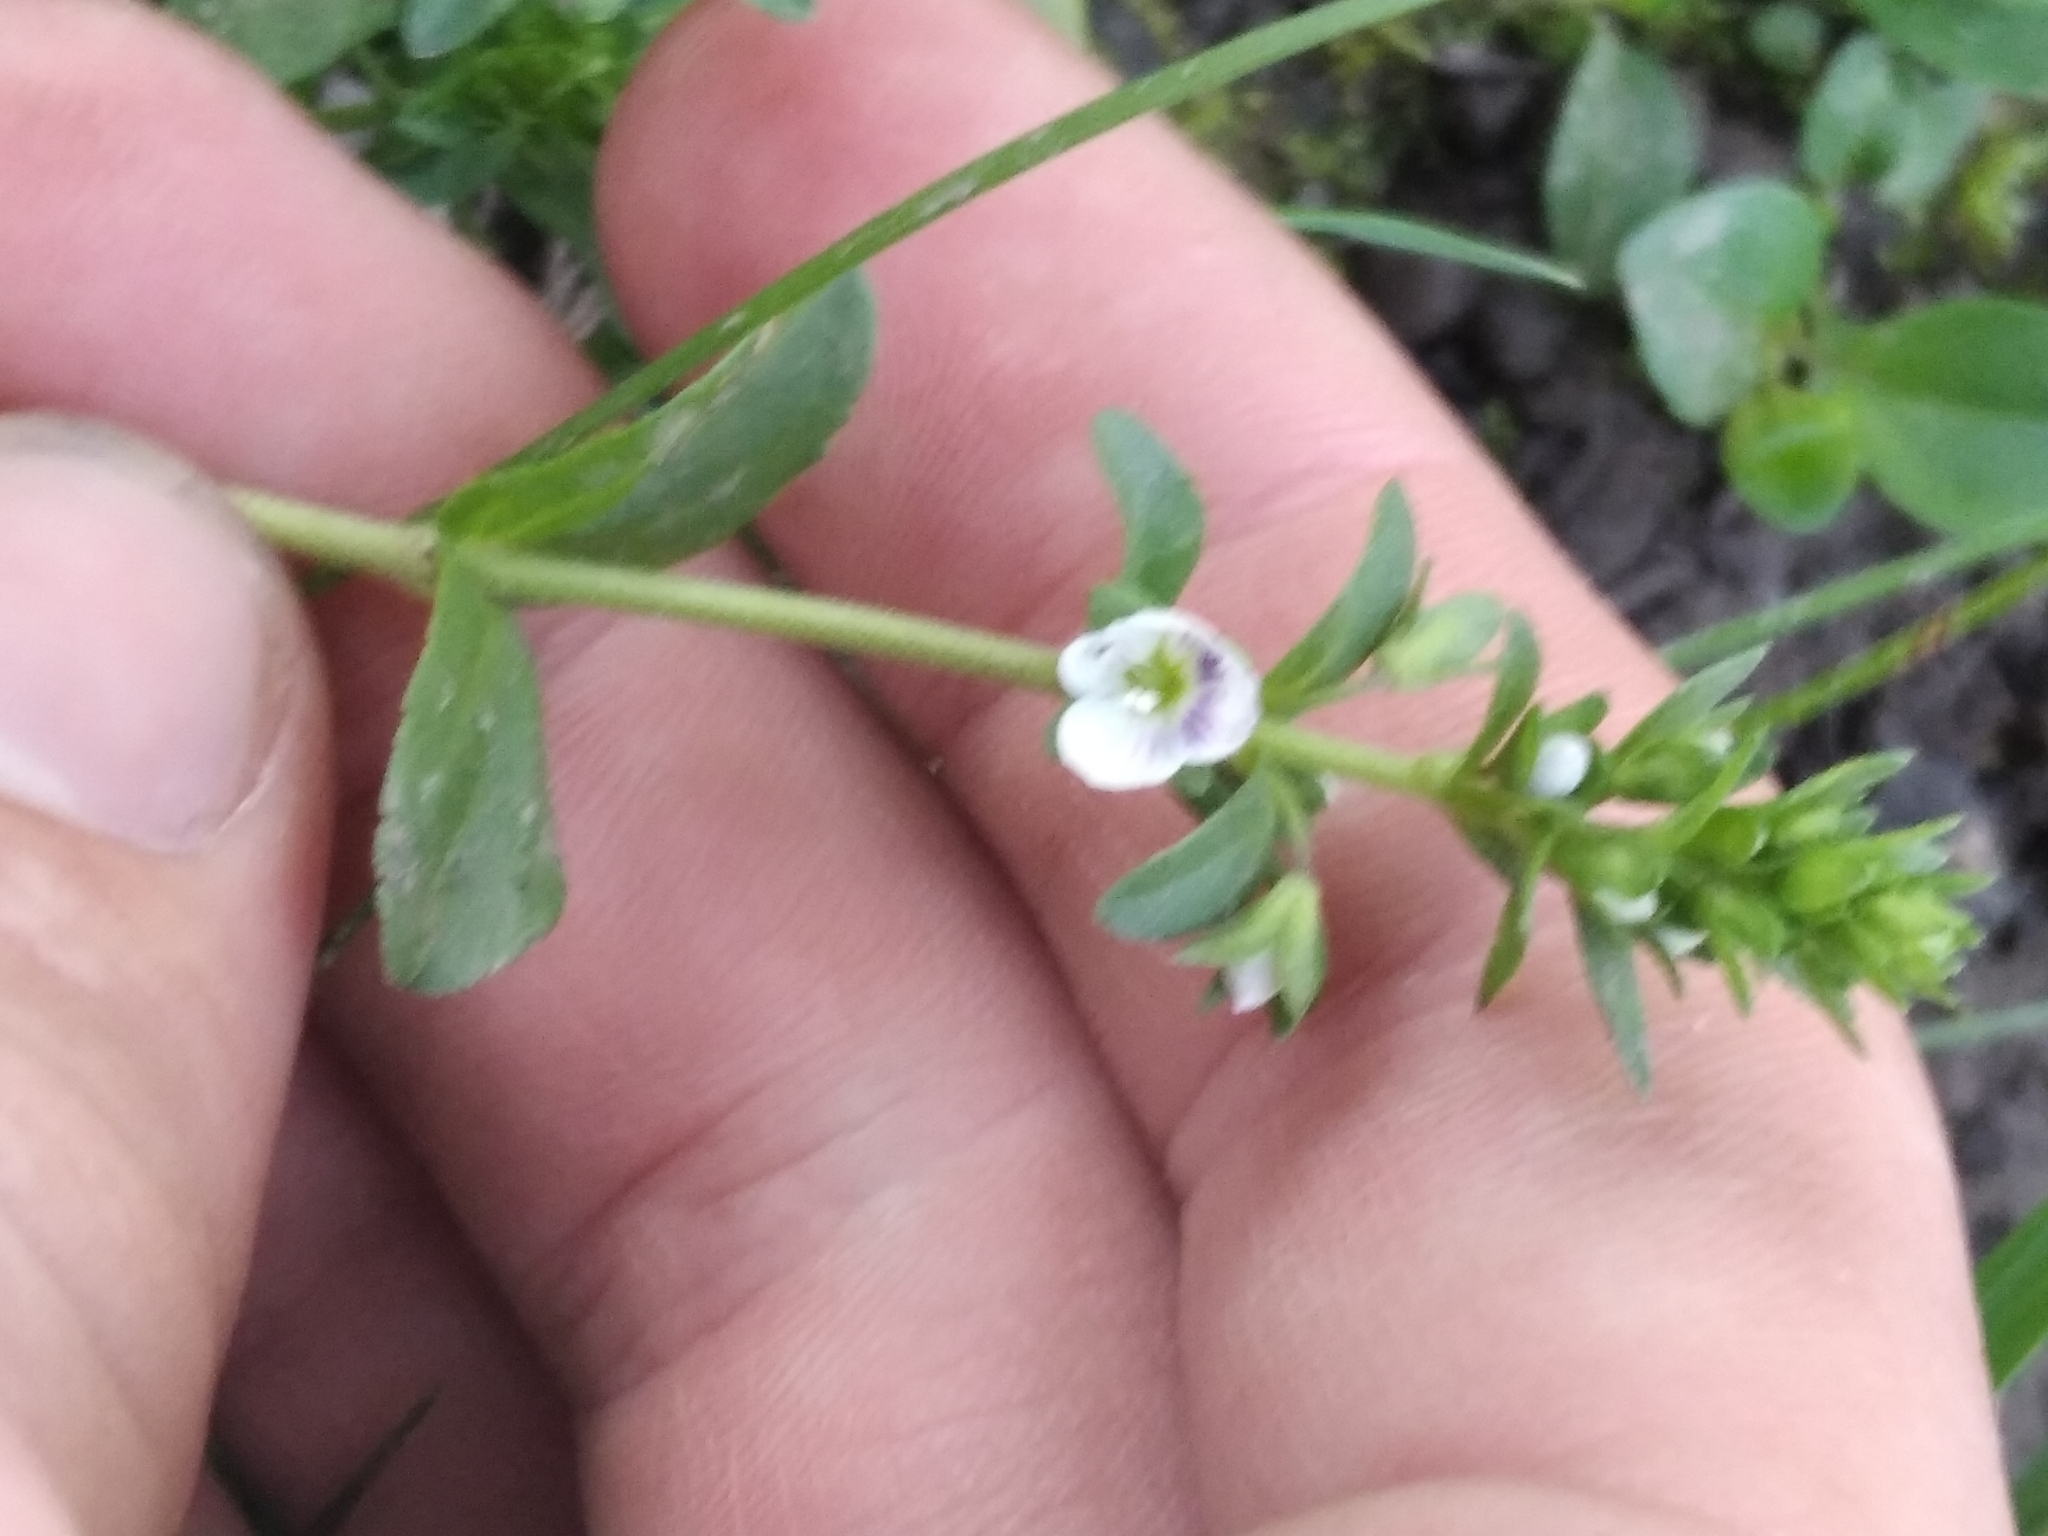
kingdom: Plantae
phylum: Tracheophyta
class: Magnoliopsida
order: Lamiales
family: Plantaginaceae
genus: Veronica
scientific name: Veronica serpyllifolia
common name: Thyme-leaved speedwell
